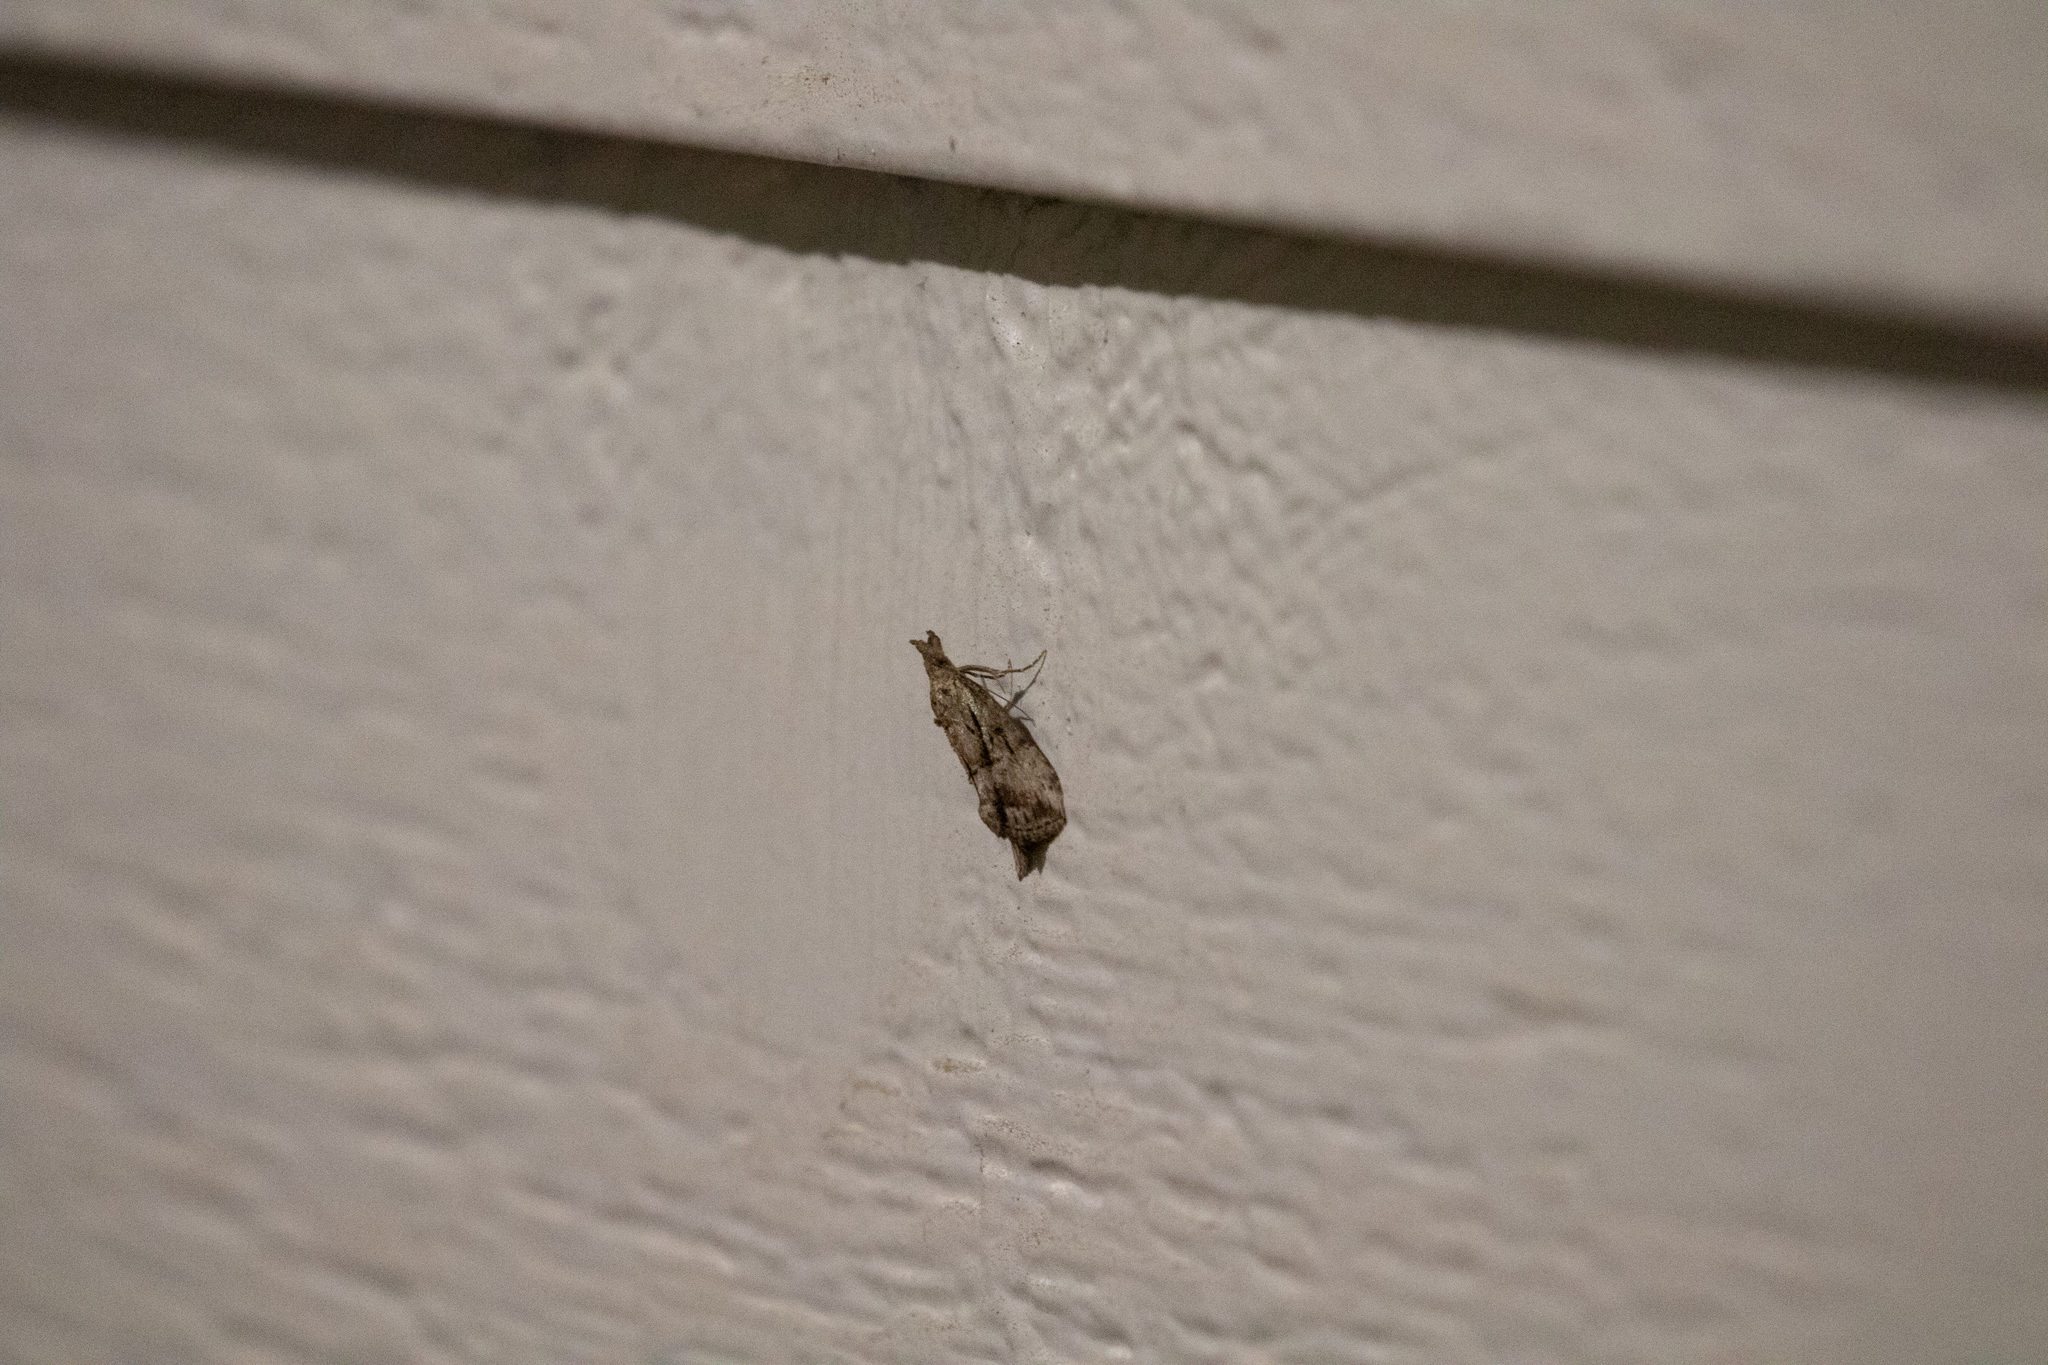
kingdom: Animalia
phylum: Arthropoda
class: Insecta
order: Lepidoptera
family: Erebidae
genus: Hypena
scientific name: Hypena scabra
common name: Green cloverworm
